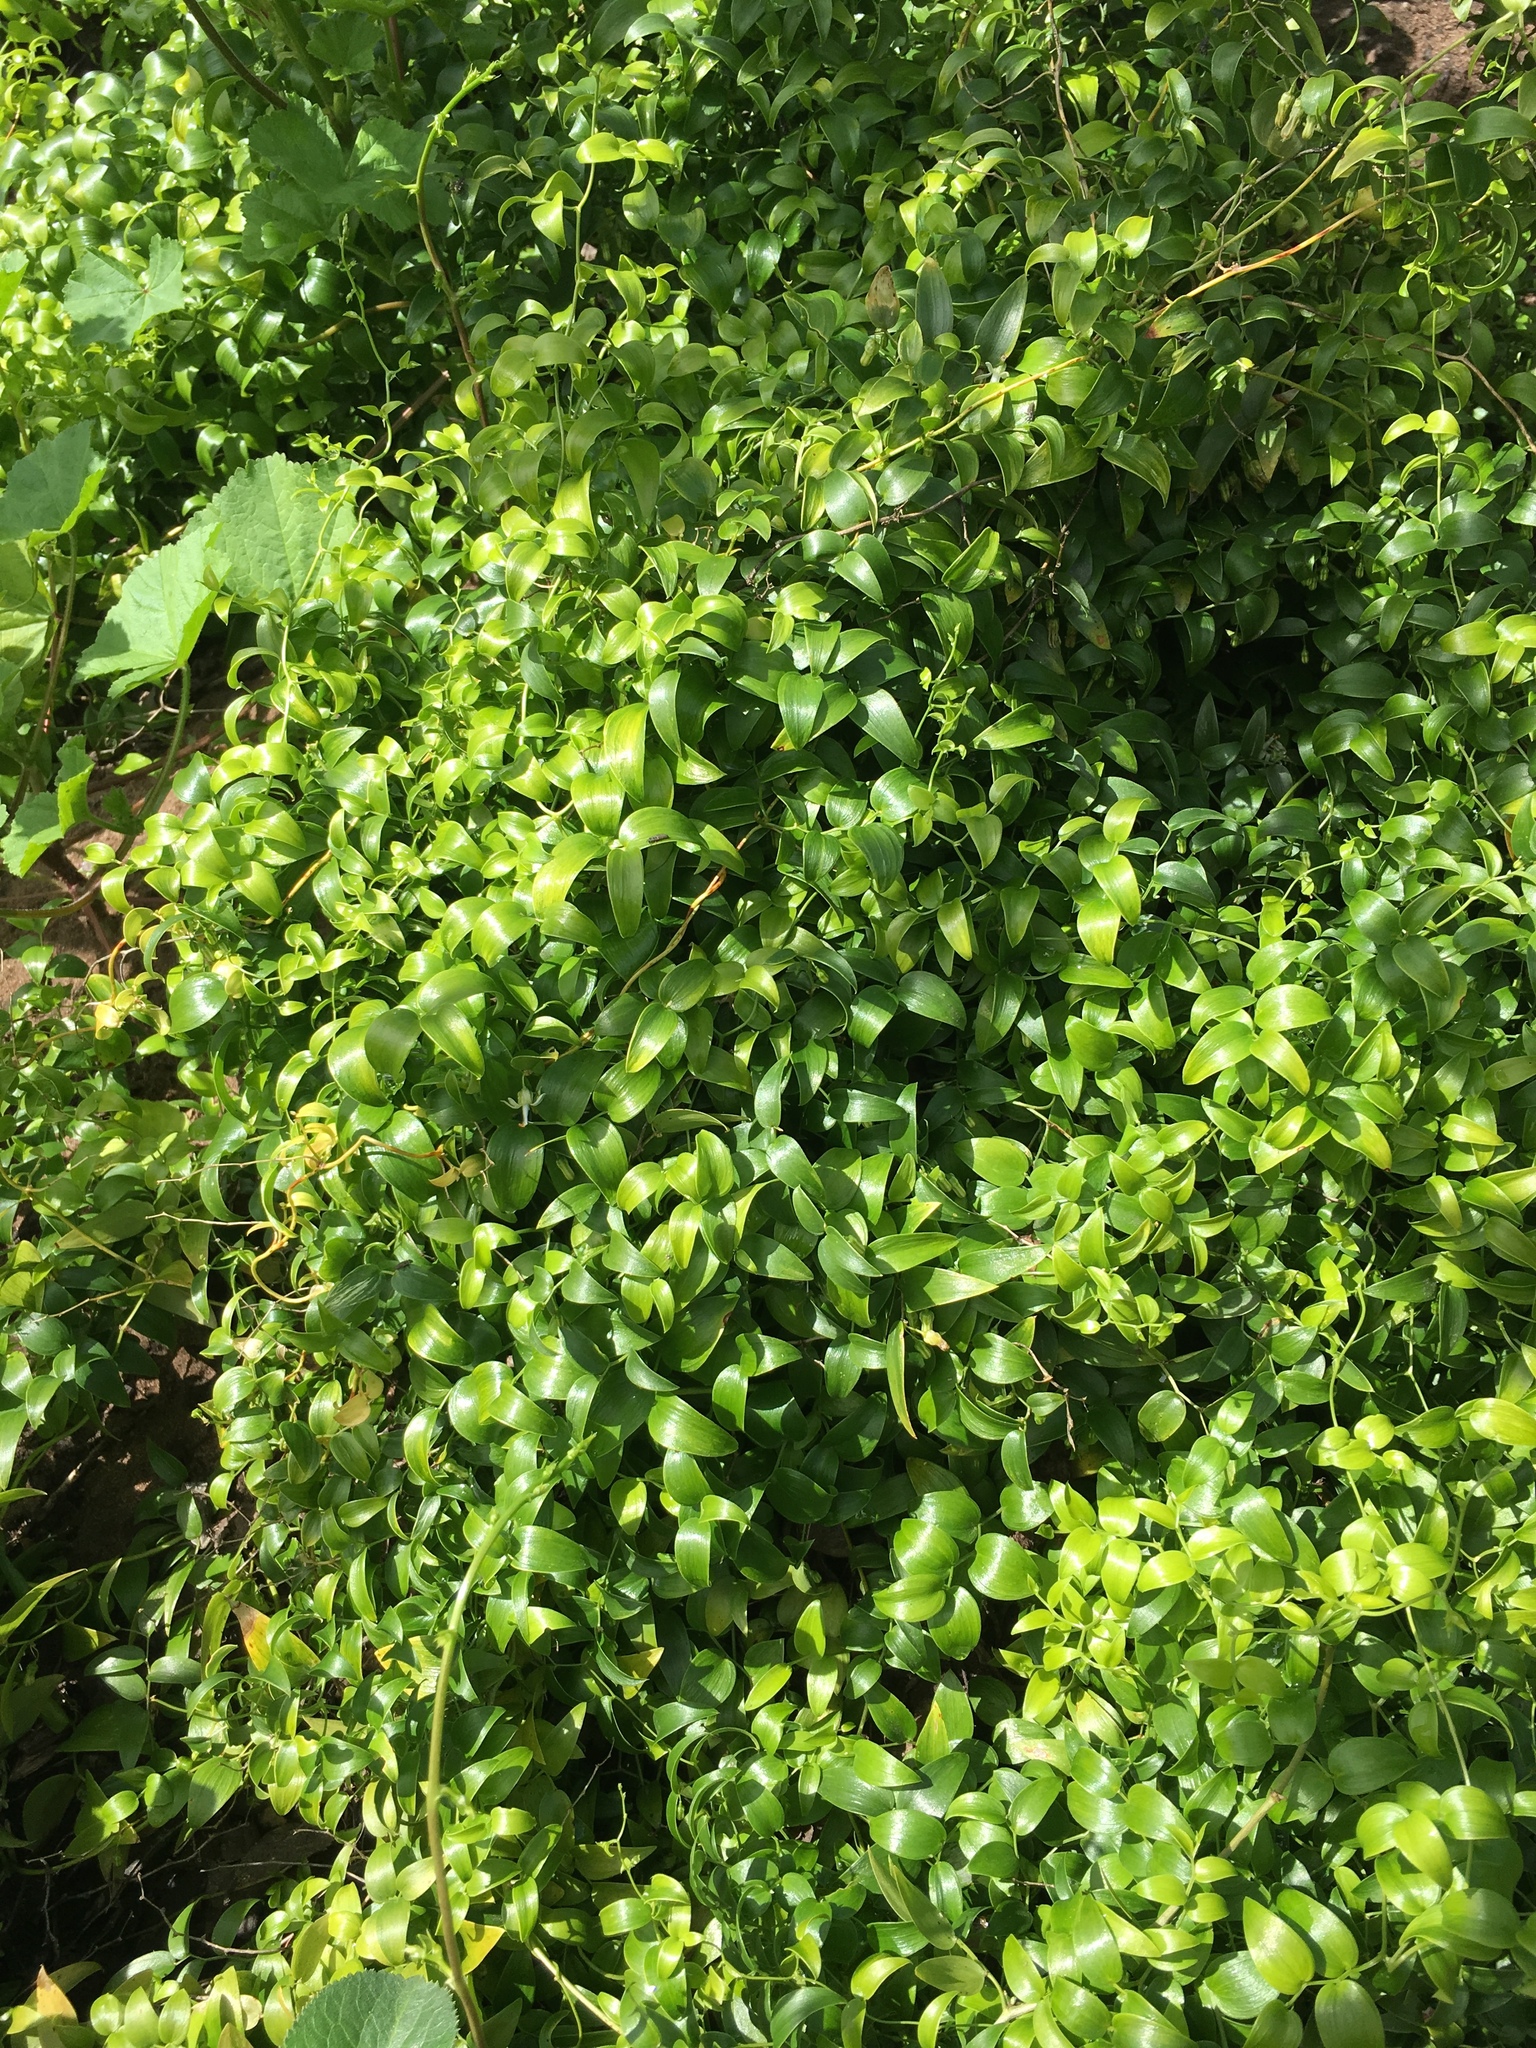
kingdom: Plantae
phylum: Tracheophyta
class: Liliopsida
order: Asparagales
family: Asparagaceae
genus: Asparagus
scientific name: Asparagus asparagoides
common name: African asparagus fern
